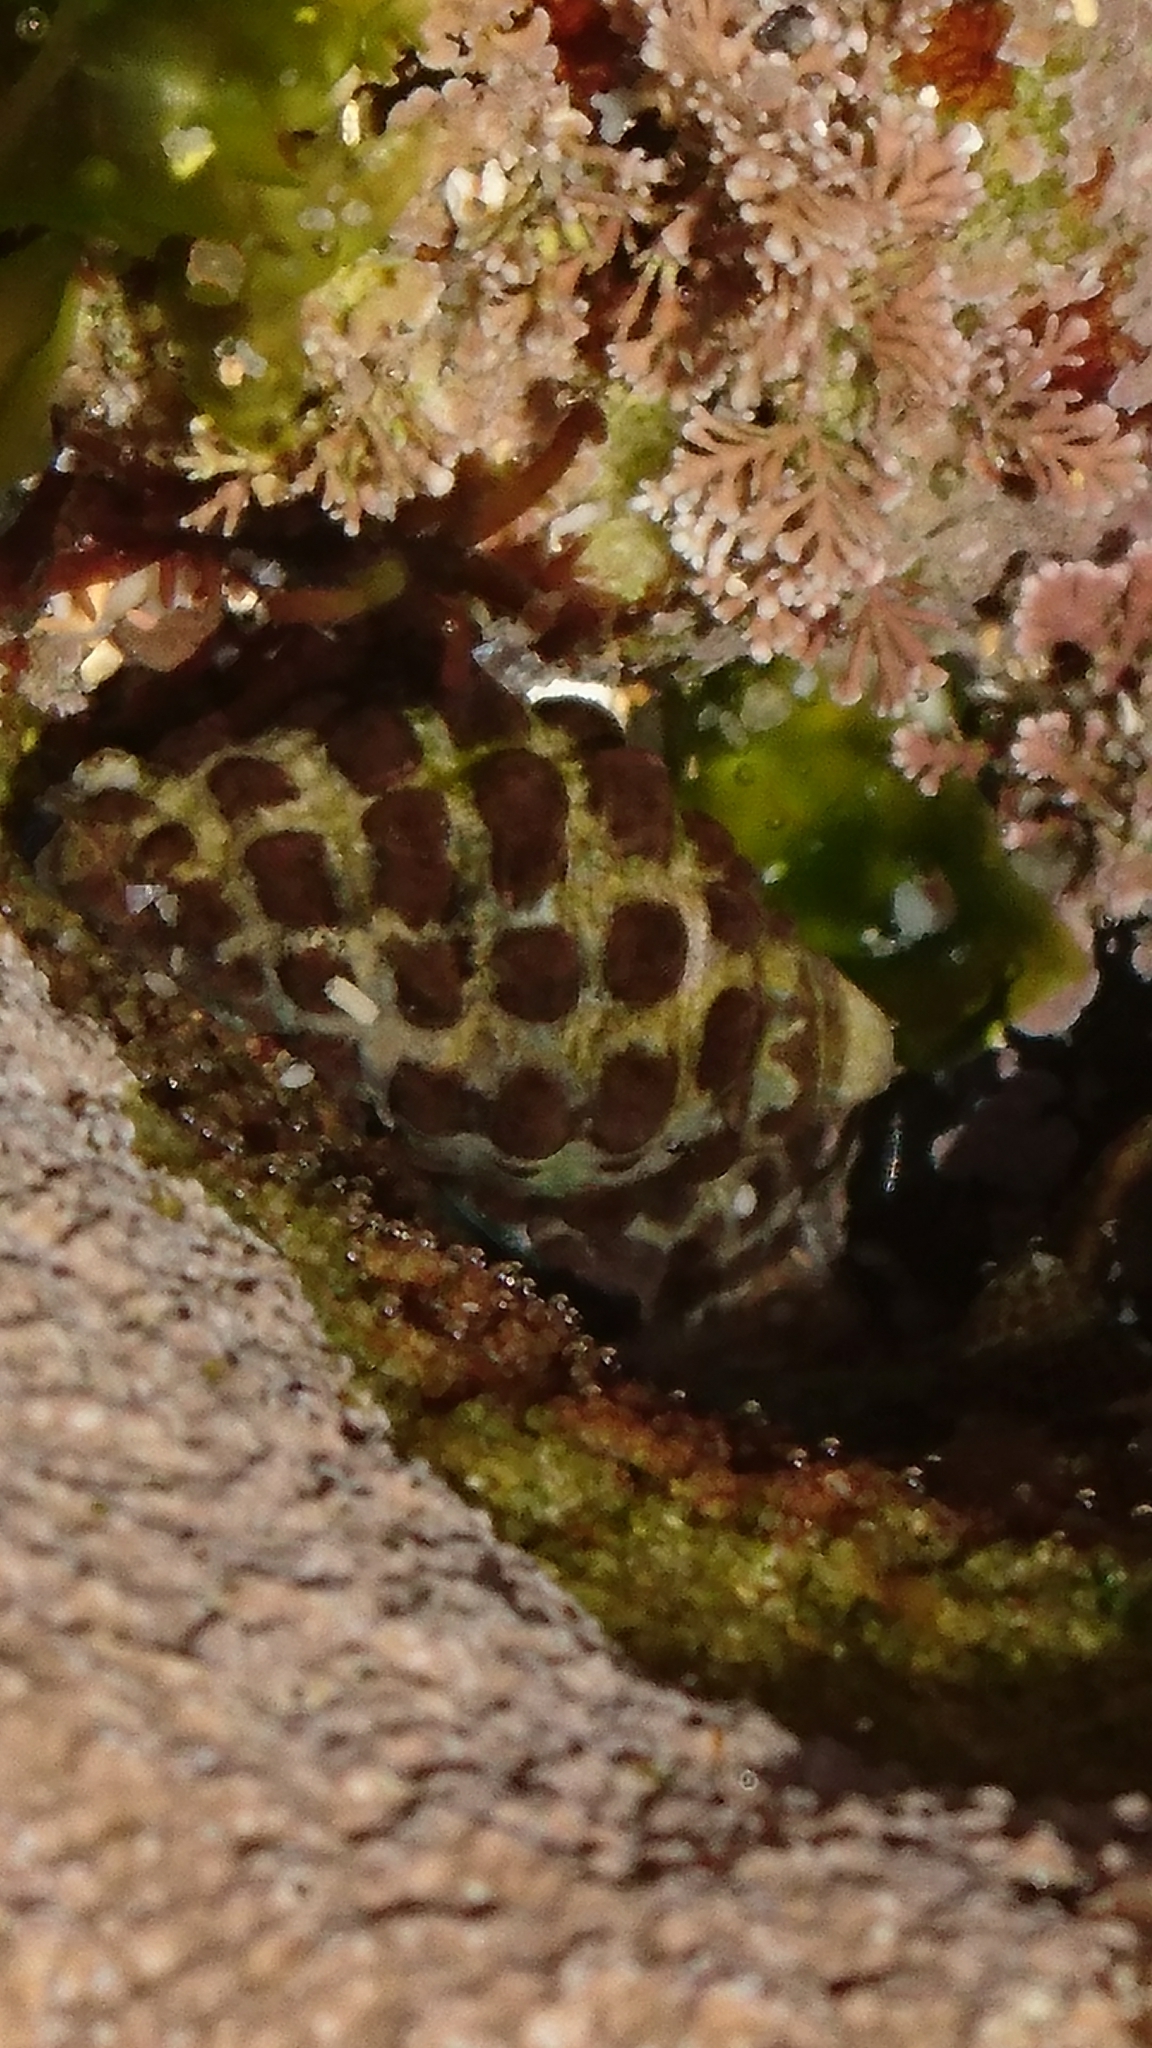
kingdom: Animalia
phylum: Mollusca
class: Gastropoda
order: Neogastropoda
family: Muricidae
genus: Tenguella
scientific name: Tenguella marginalba
